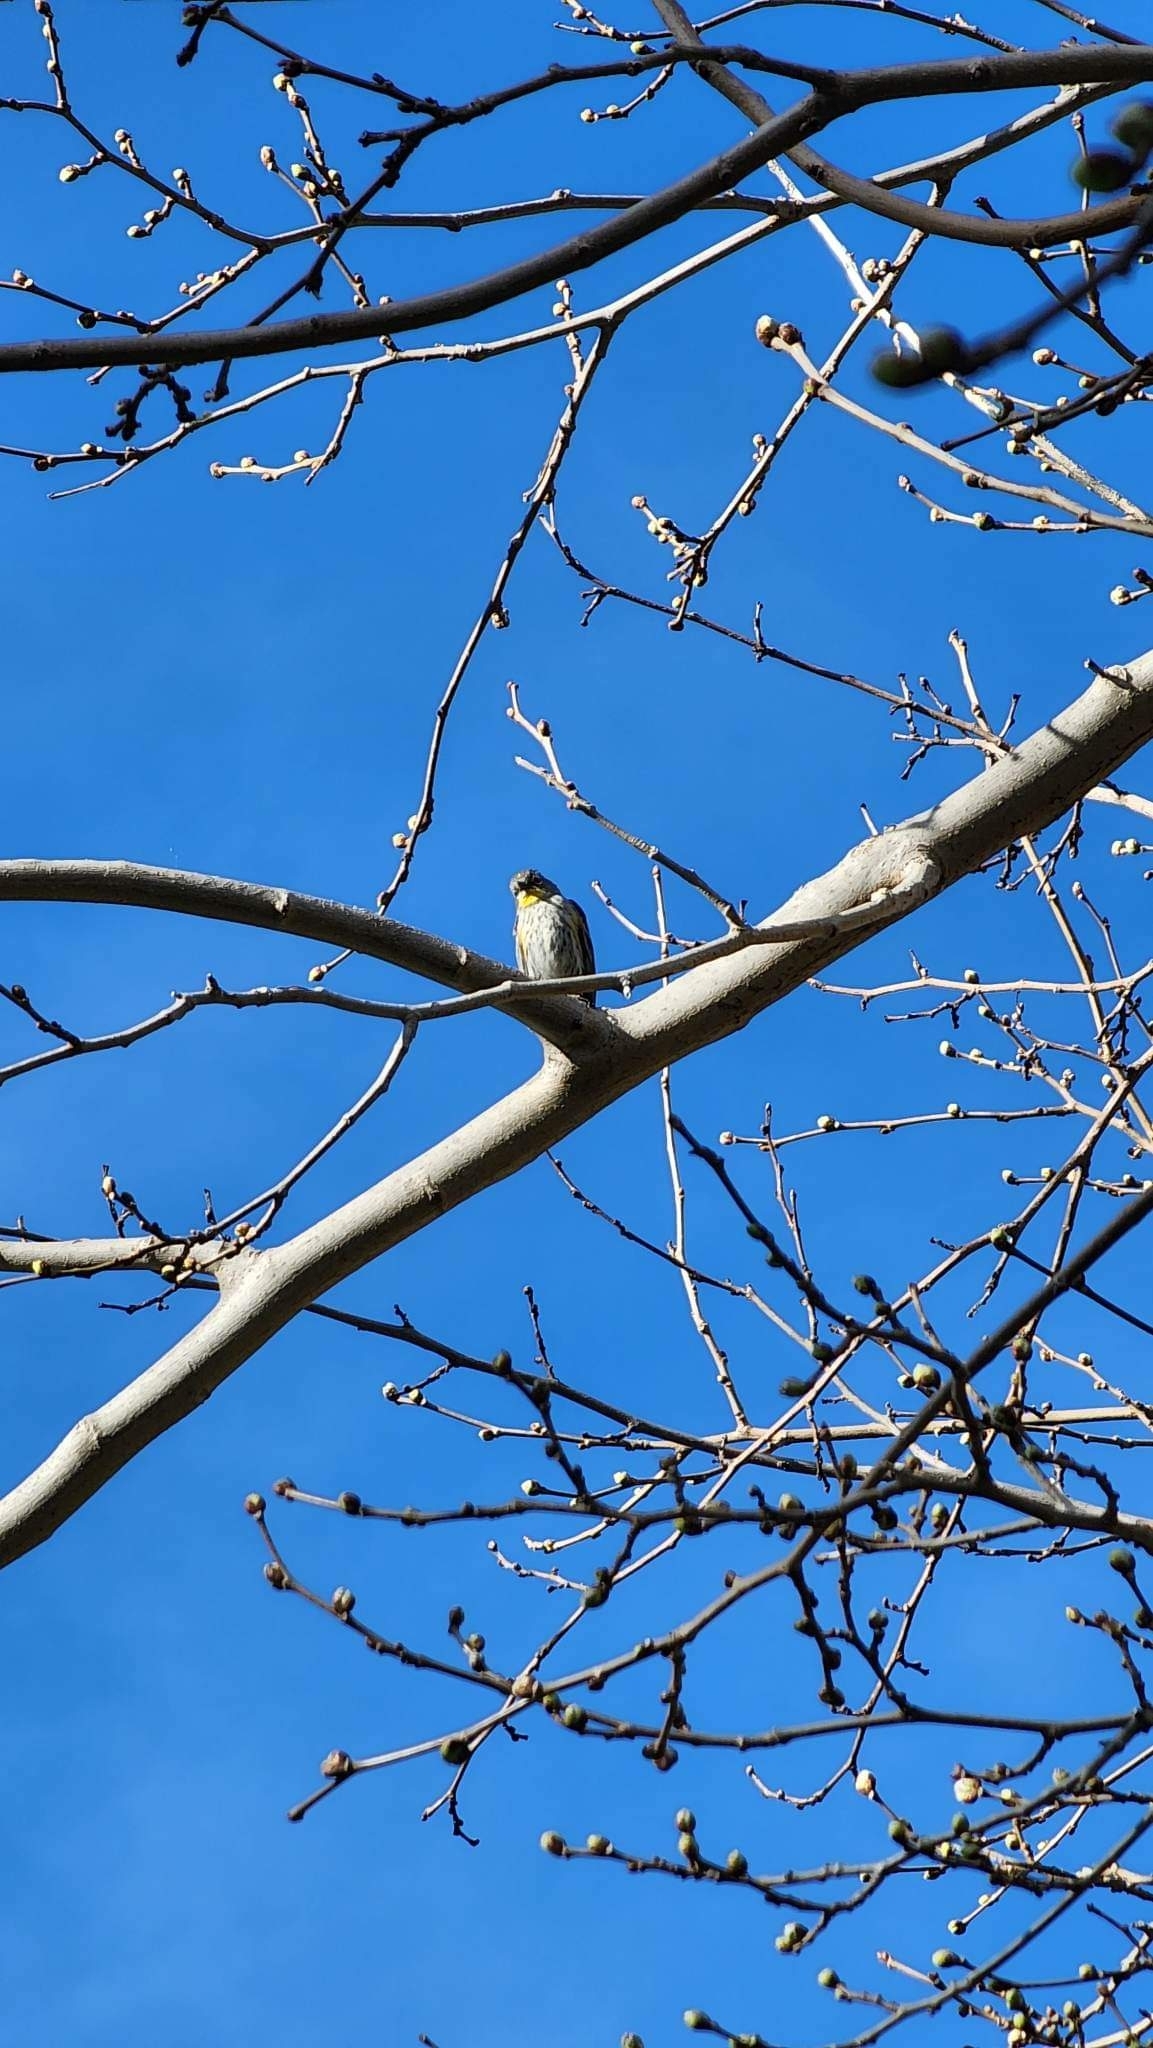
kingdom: Animalia
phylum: Chordata
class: Aves
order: Passeriformes
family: Parulidae
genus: Setophaga
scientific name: Setophaga coronata
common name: Myrtle warbler
